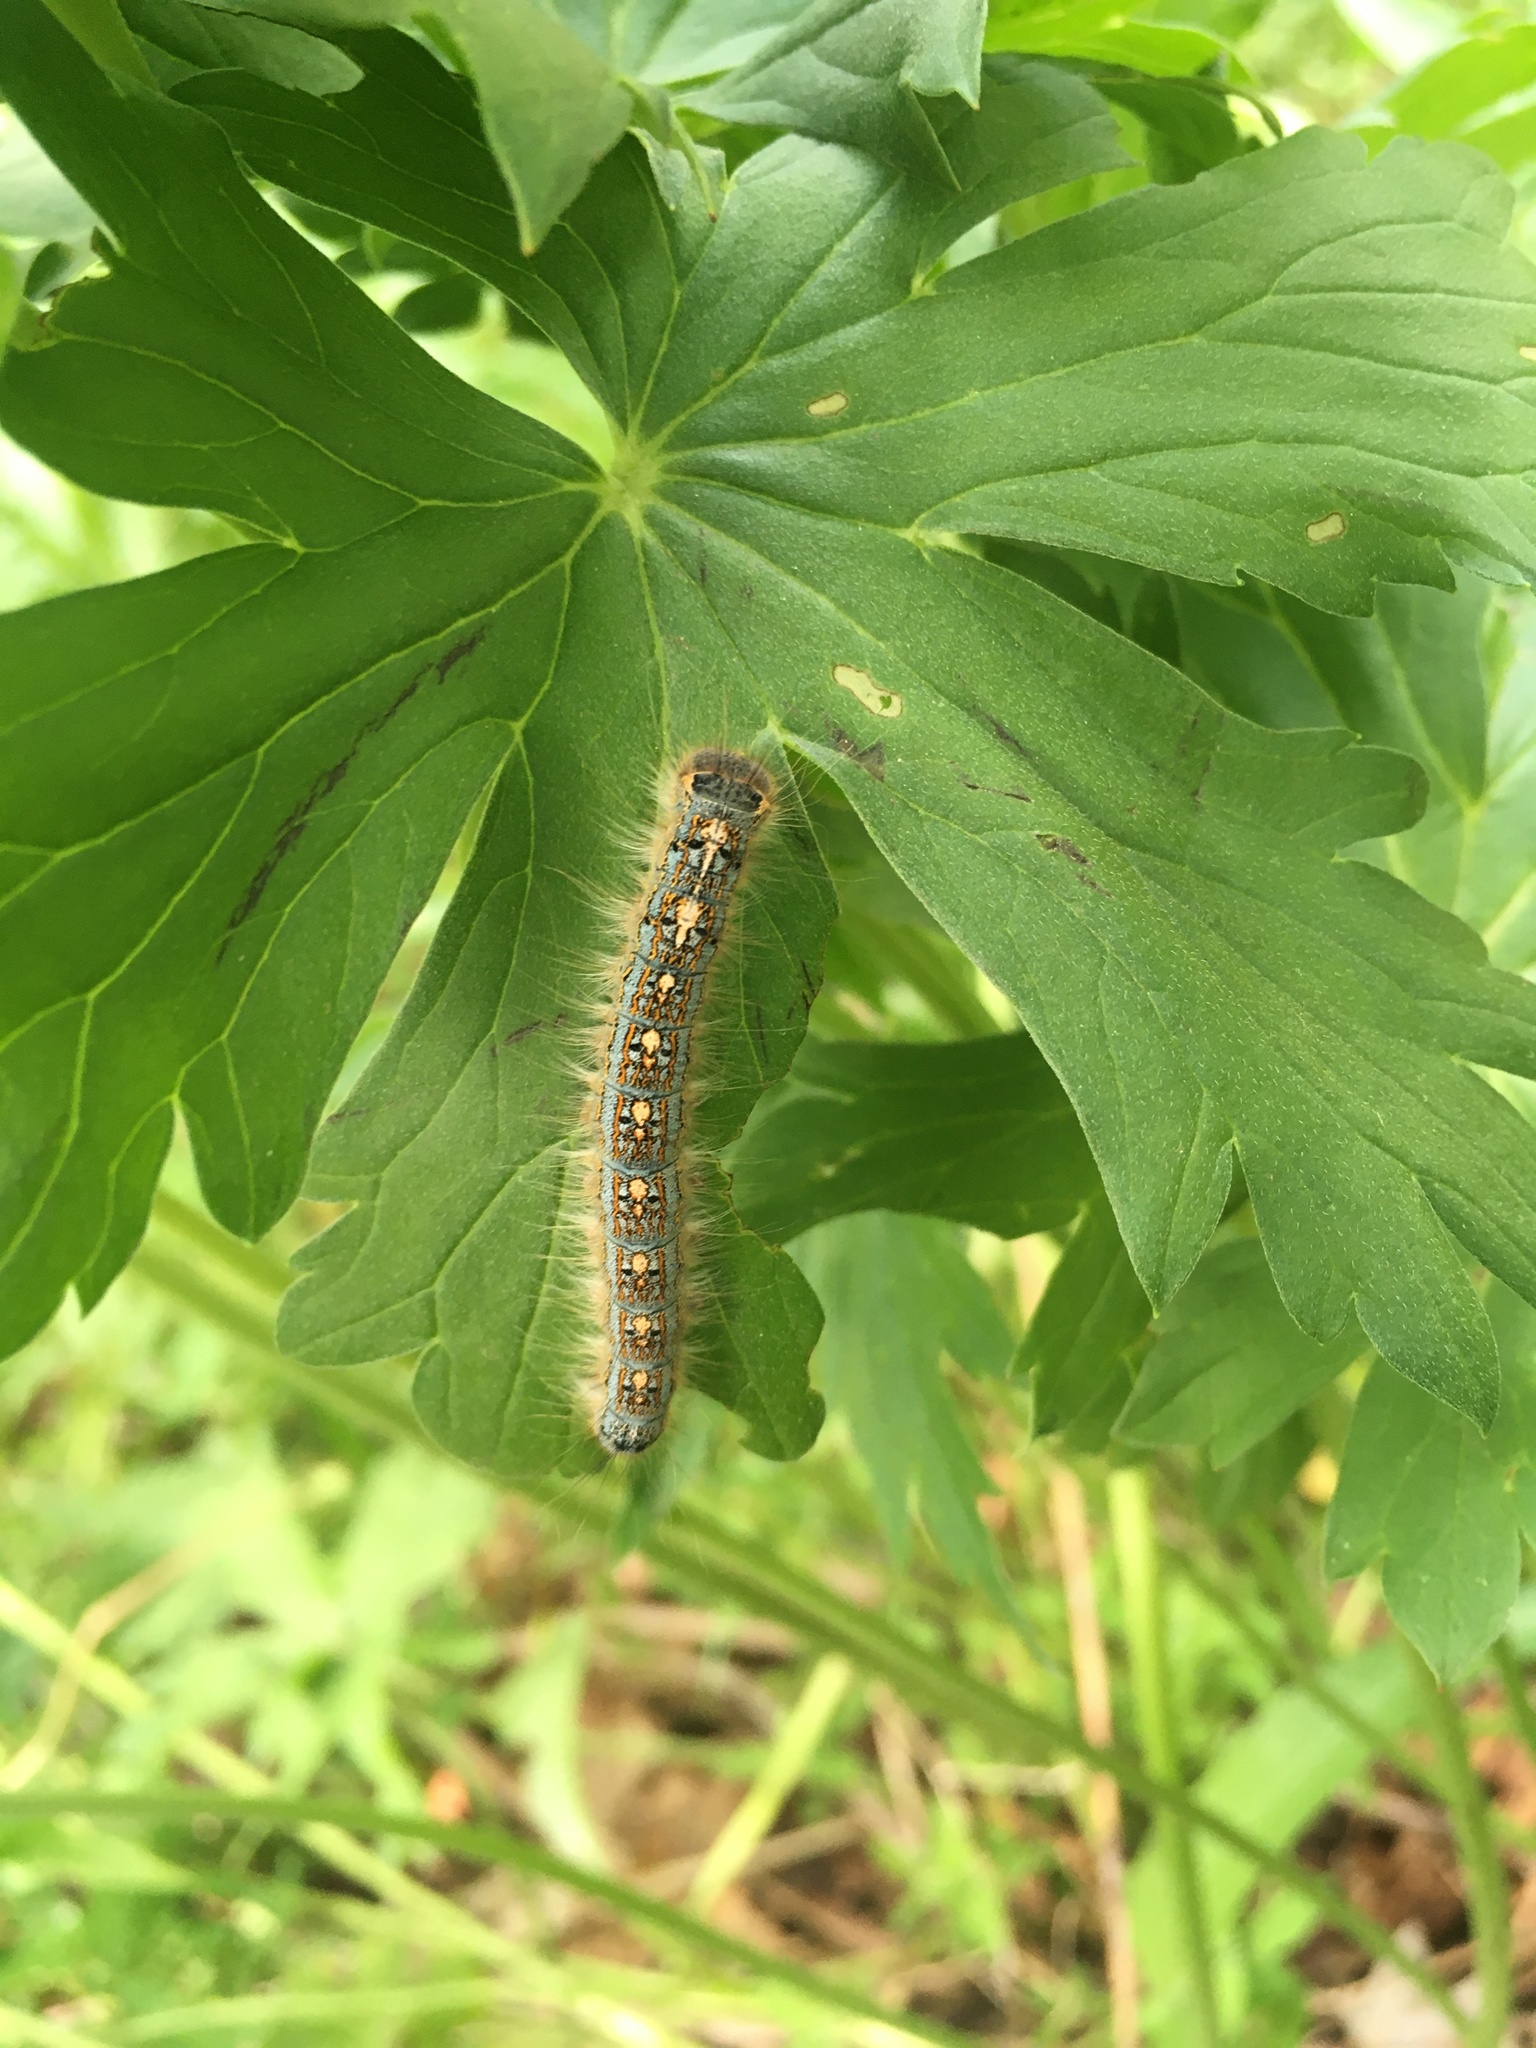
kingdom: Animalia
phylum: Arthropoda
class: Insecta
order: Lepidoptera
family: Lasiocampidae
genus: Malacosoma
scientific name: Malacosoma disstria
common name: Forest tent caterpillar
